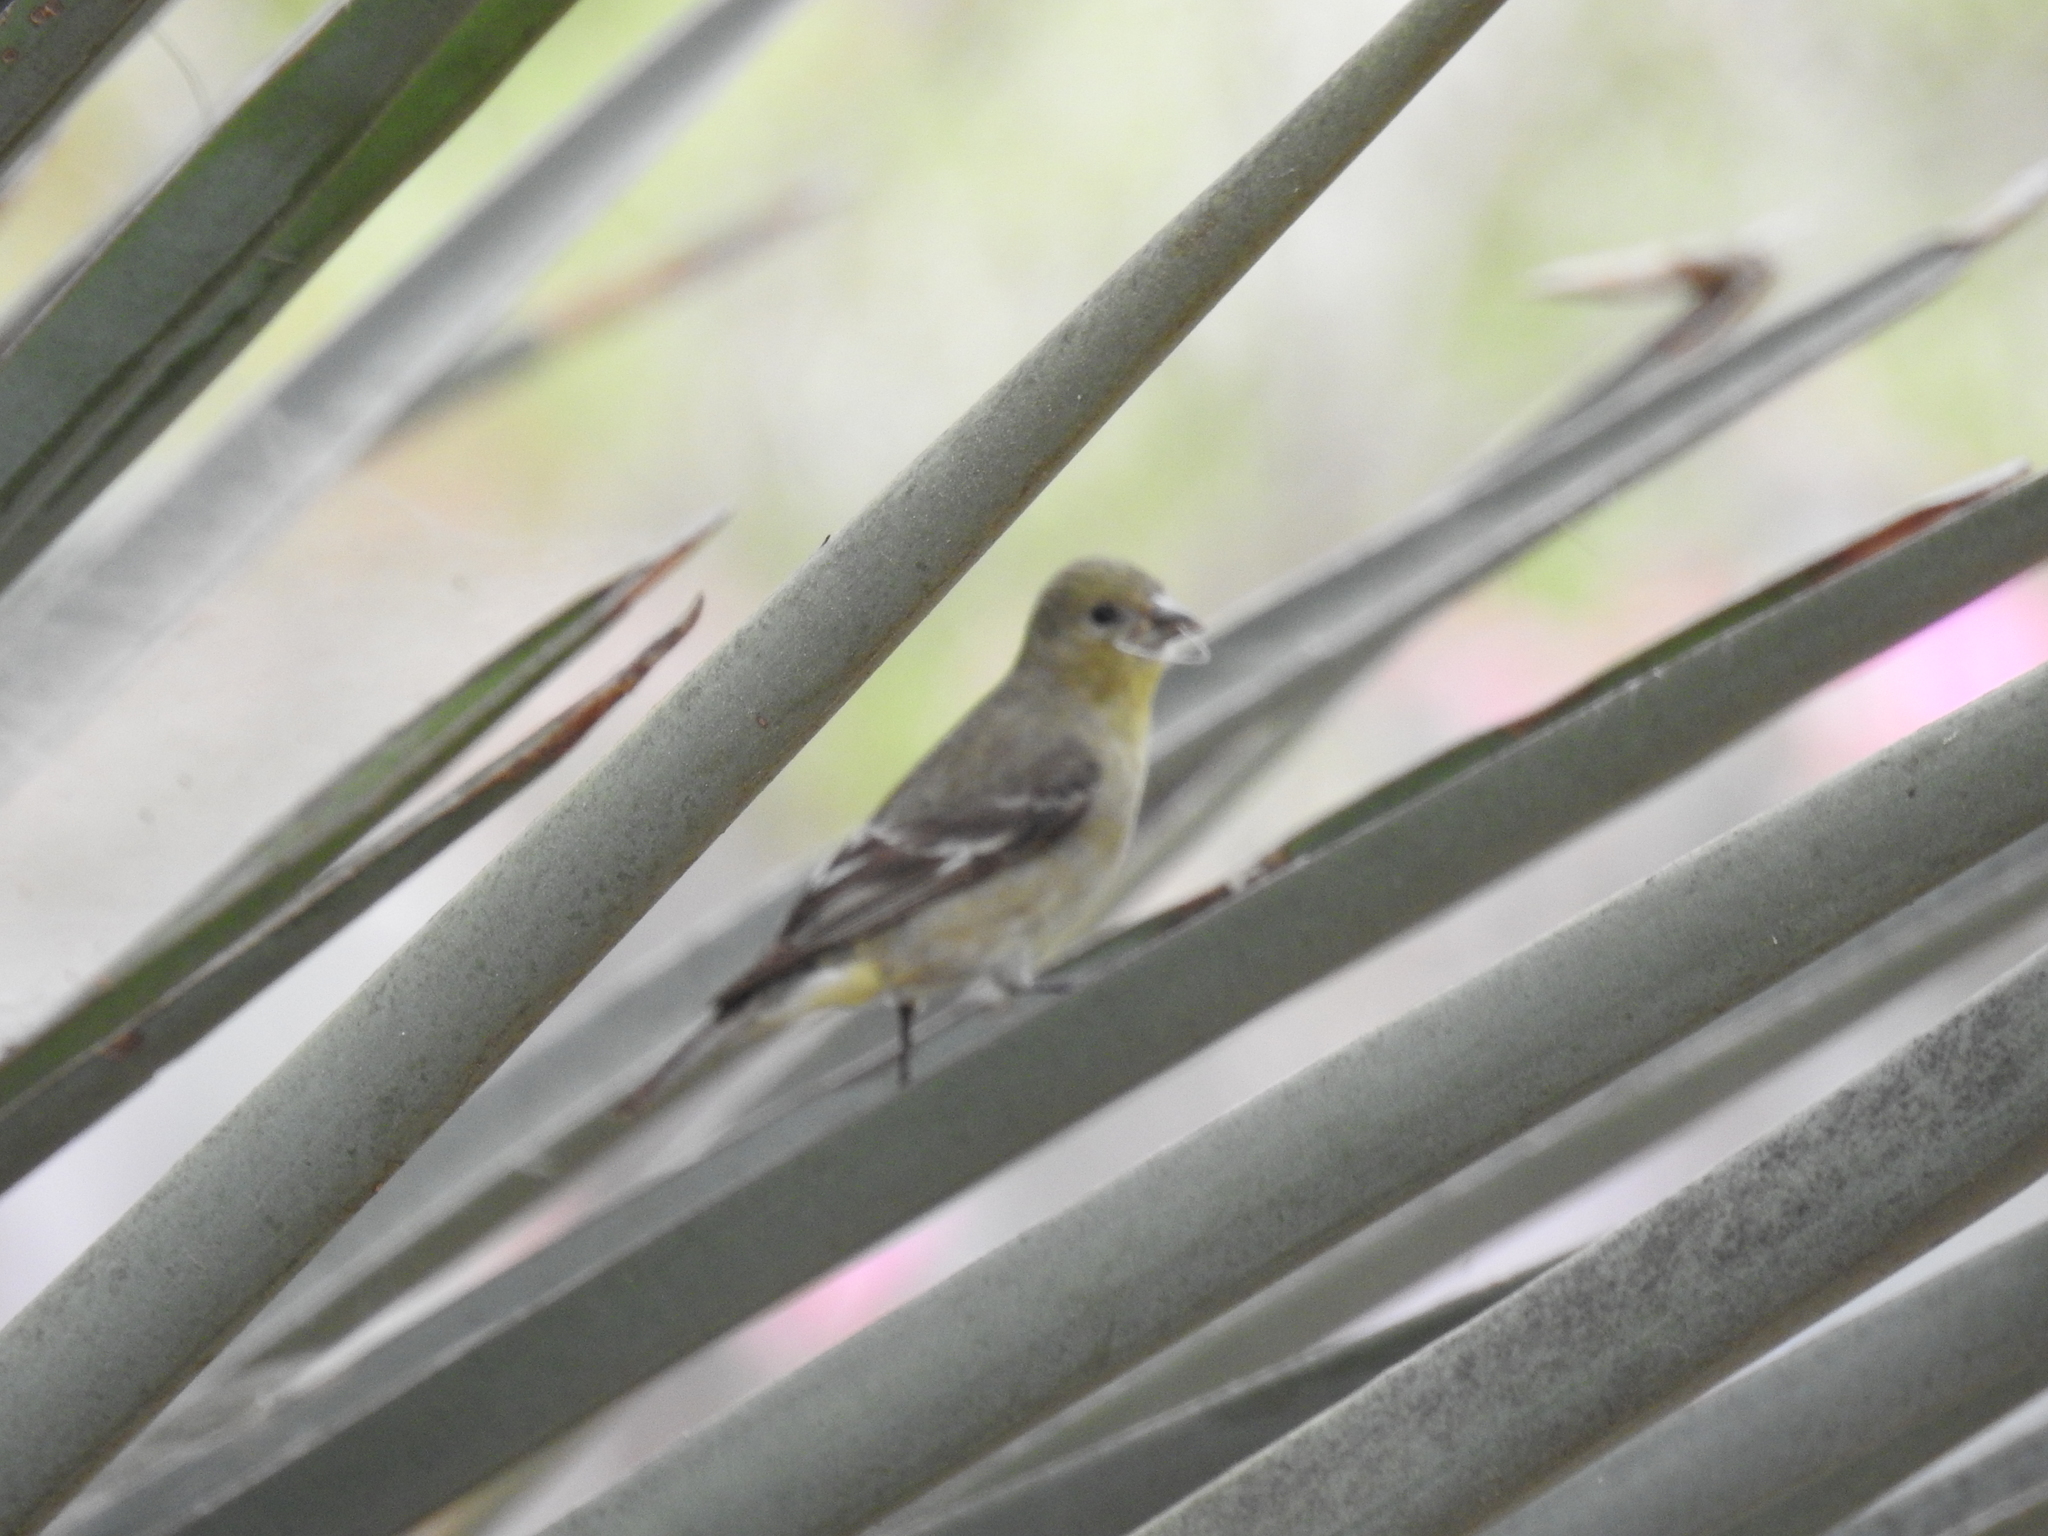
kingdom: Animalia
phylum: Chordata
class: Aves
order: Passeriformes
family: Fringillidae
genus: Spinus
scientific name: Spinus psaltria
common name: Lesser goldfinch
